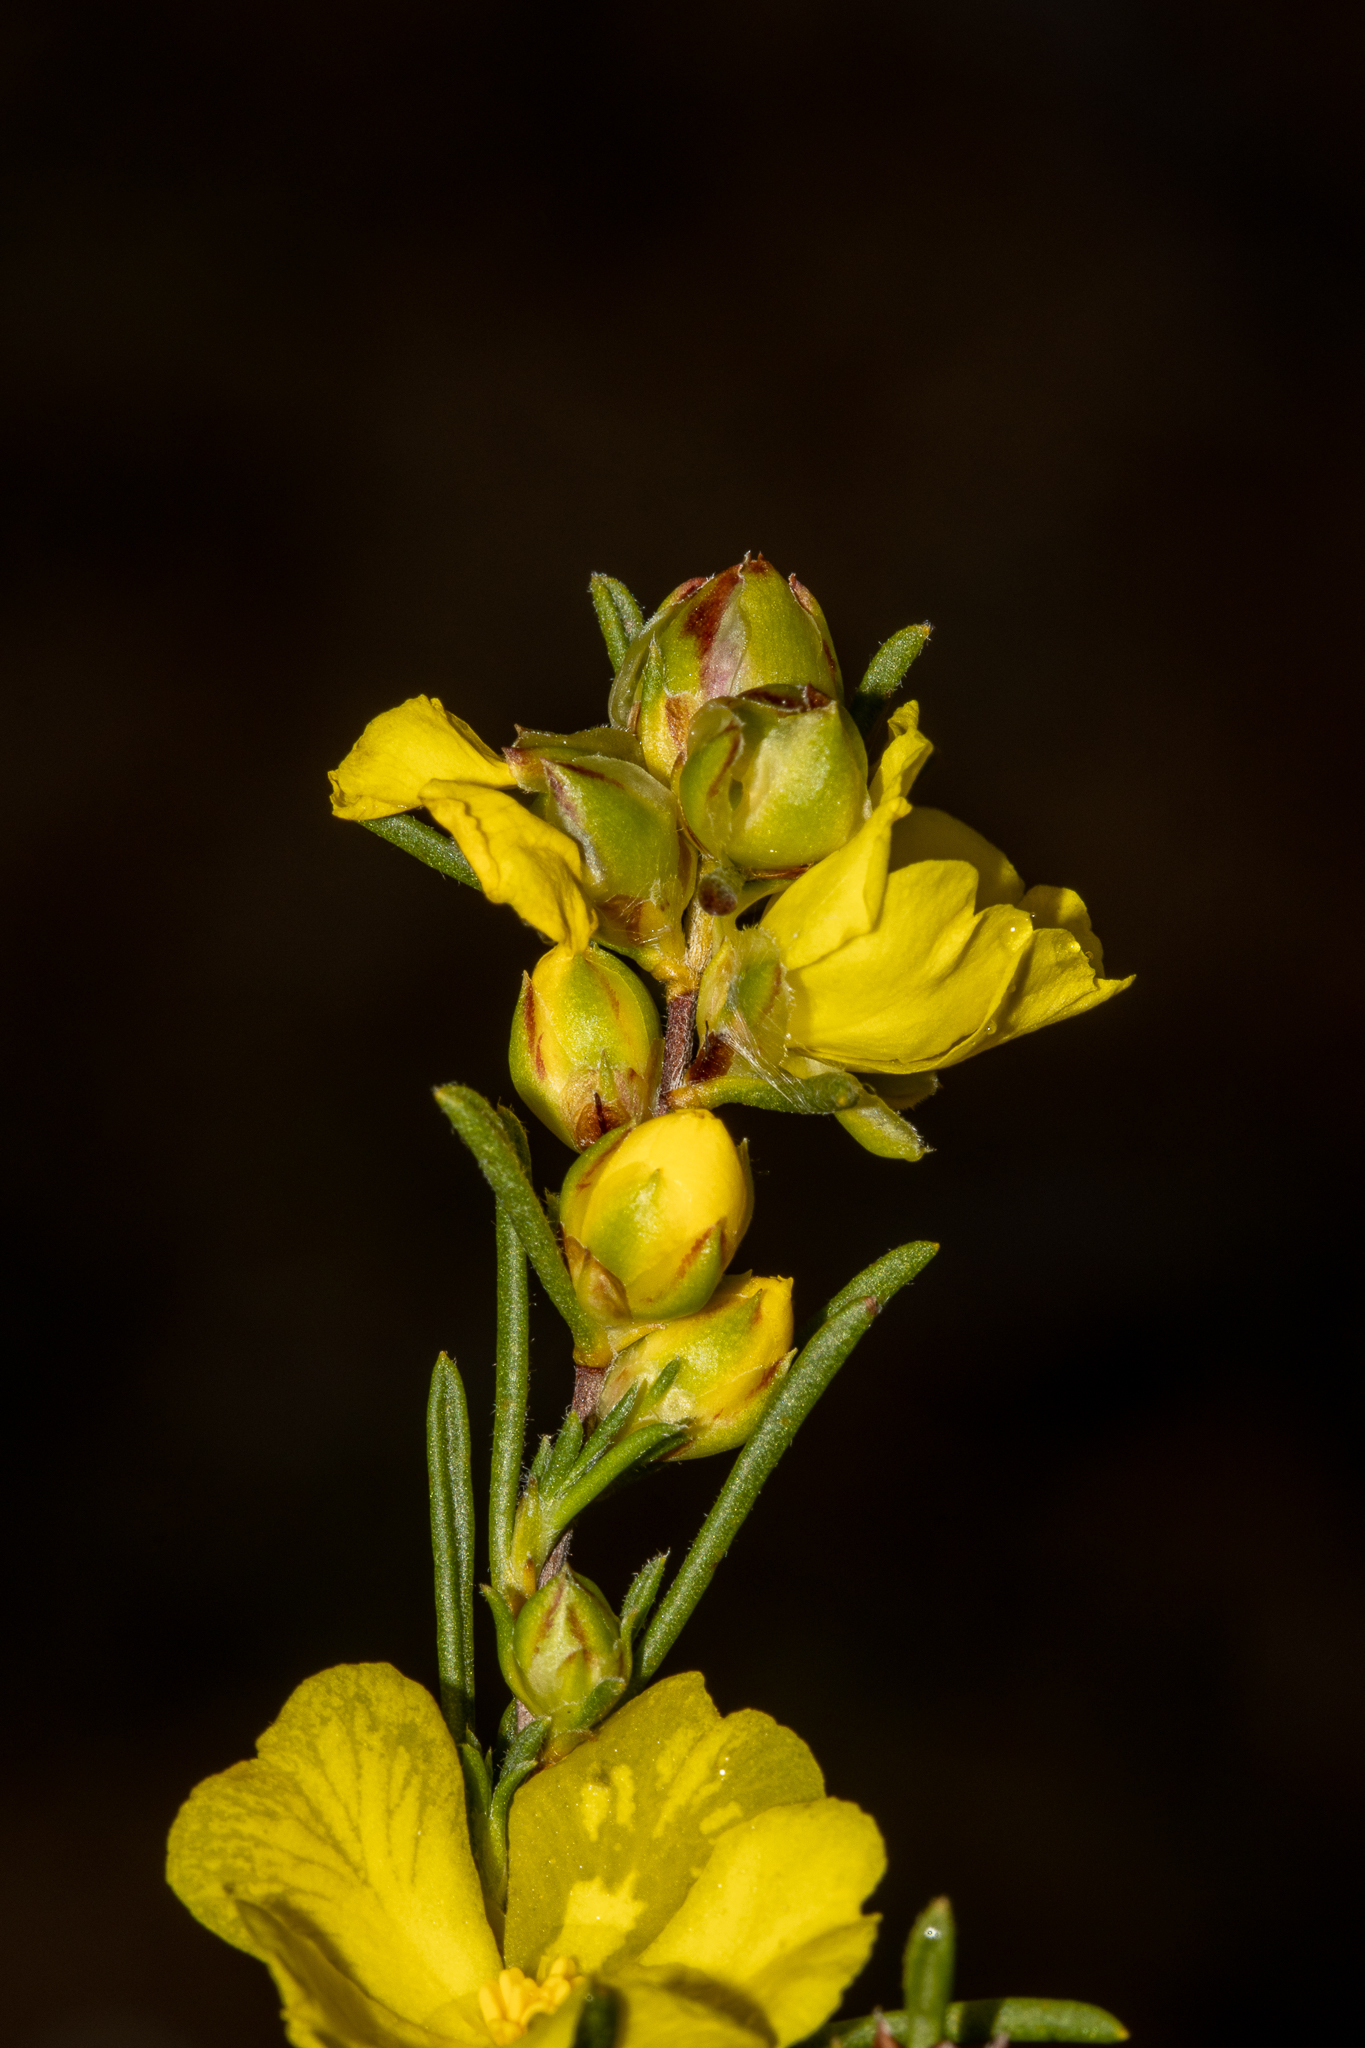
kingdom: Plantae
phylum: Tracheophyta
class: Magnoliopsida
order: Dilleniales
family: Dilleniaceae
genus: Hibbertia
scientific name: Hibbertia virgata
